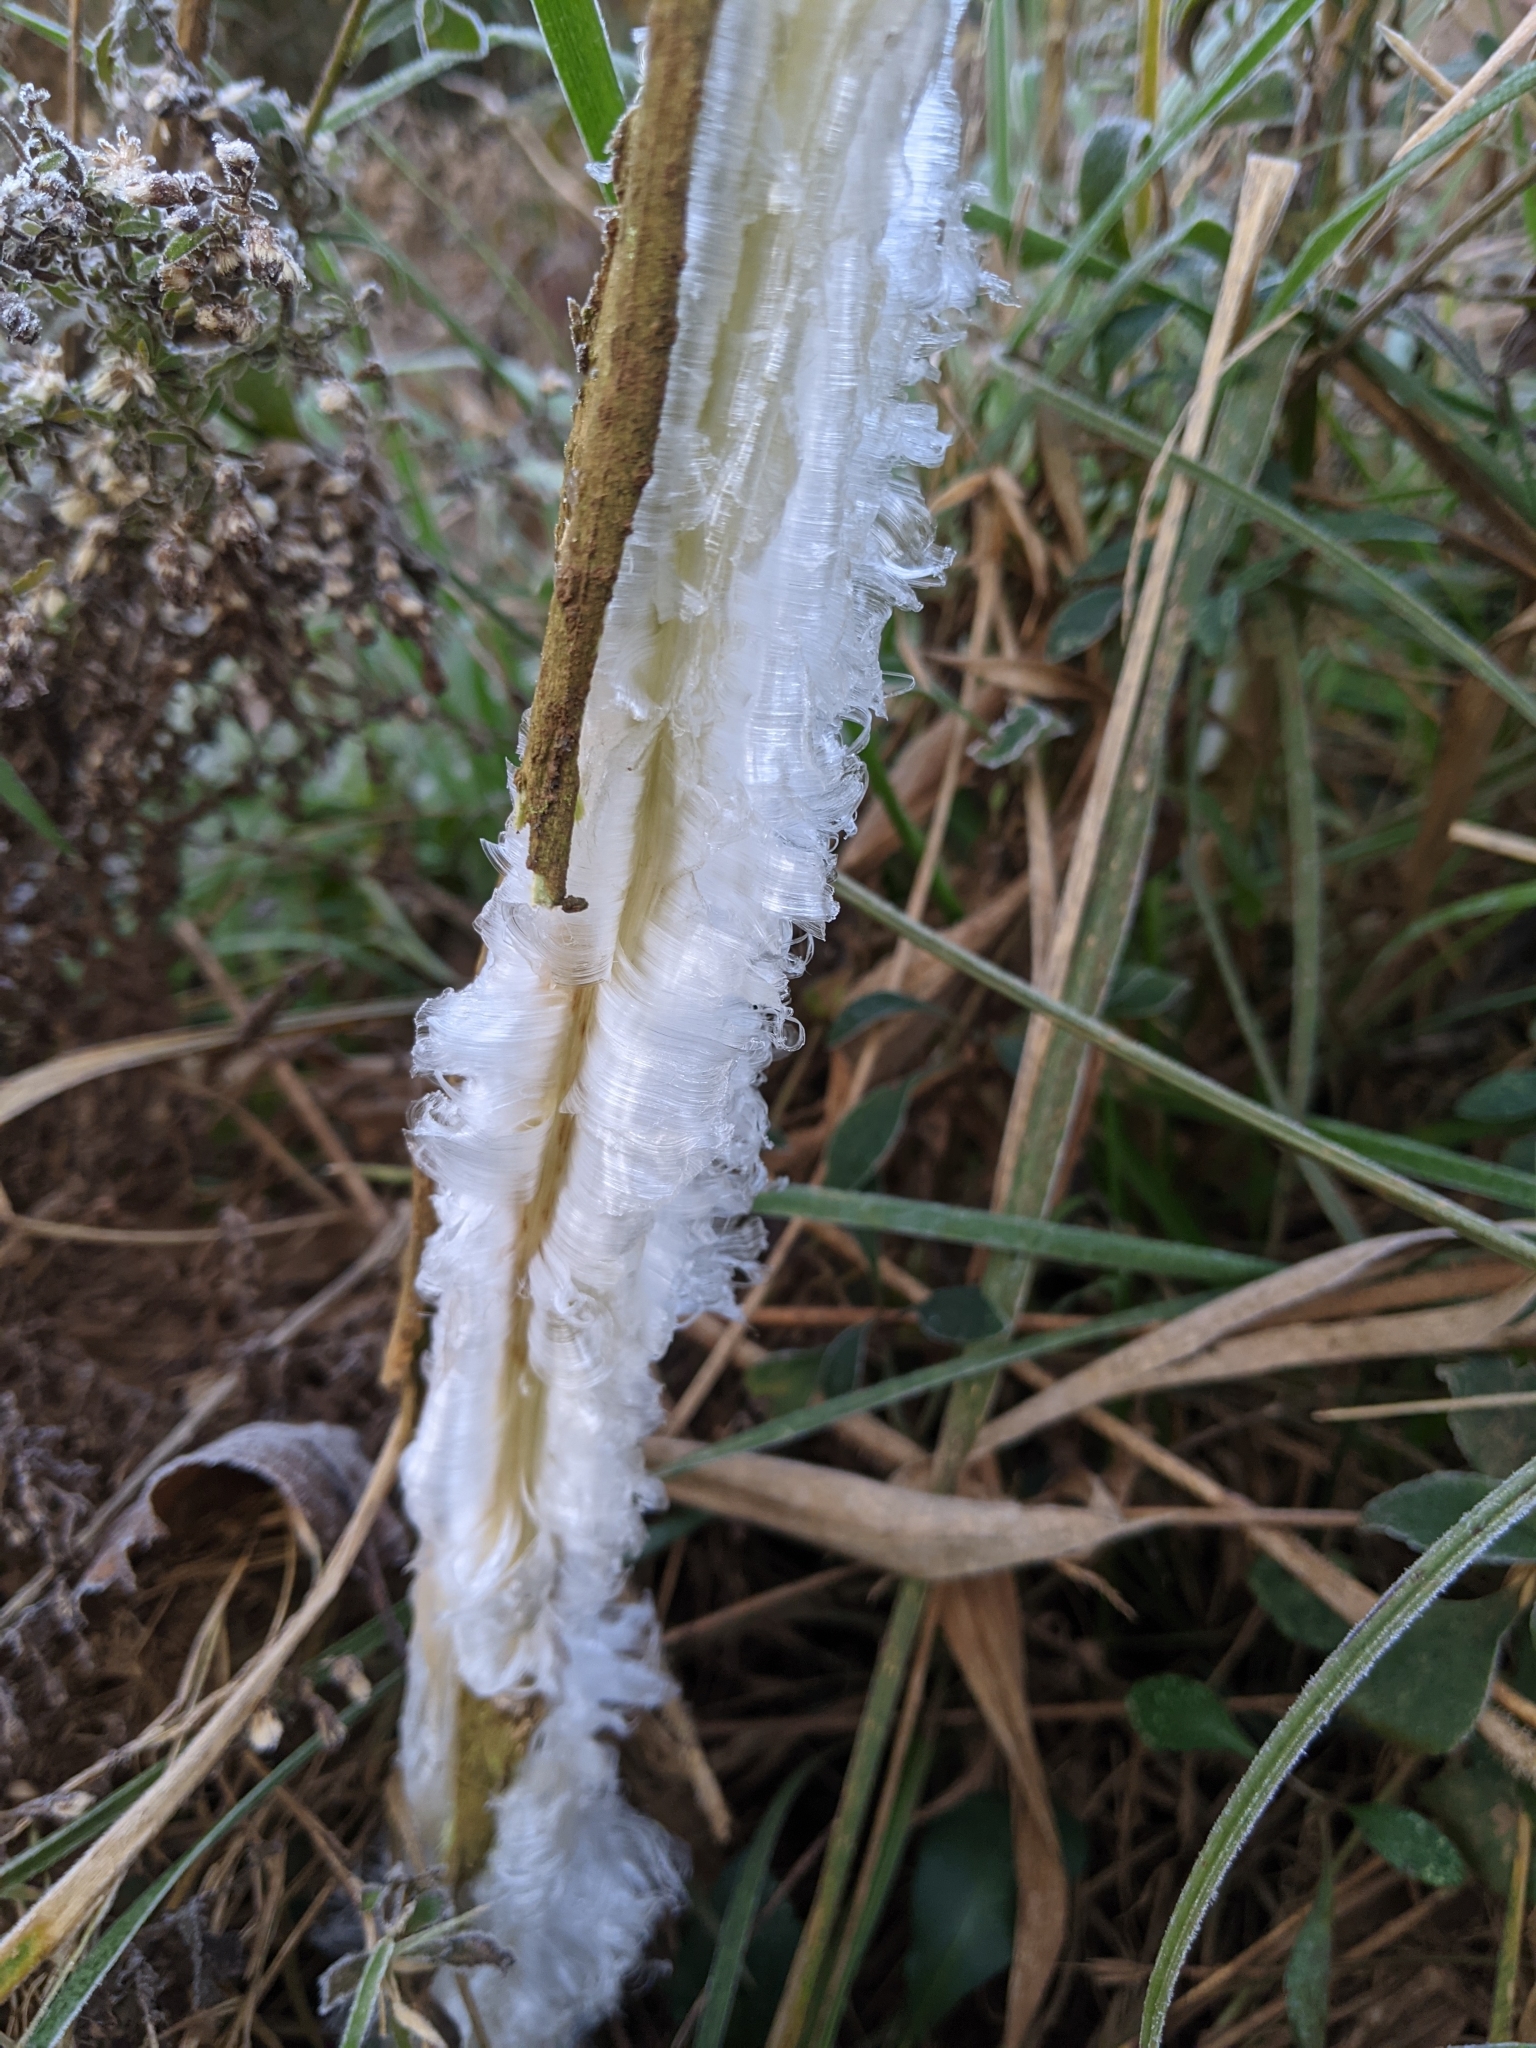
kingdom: Plantae
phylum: Tracheophyta
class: Magnoliopsida
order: Asterales
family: Asteraceae
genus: Verbesina
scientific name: Verbesina virginica
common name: Frostweed
